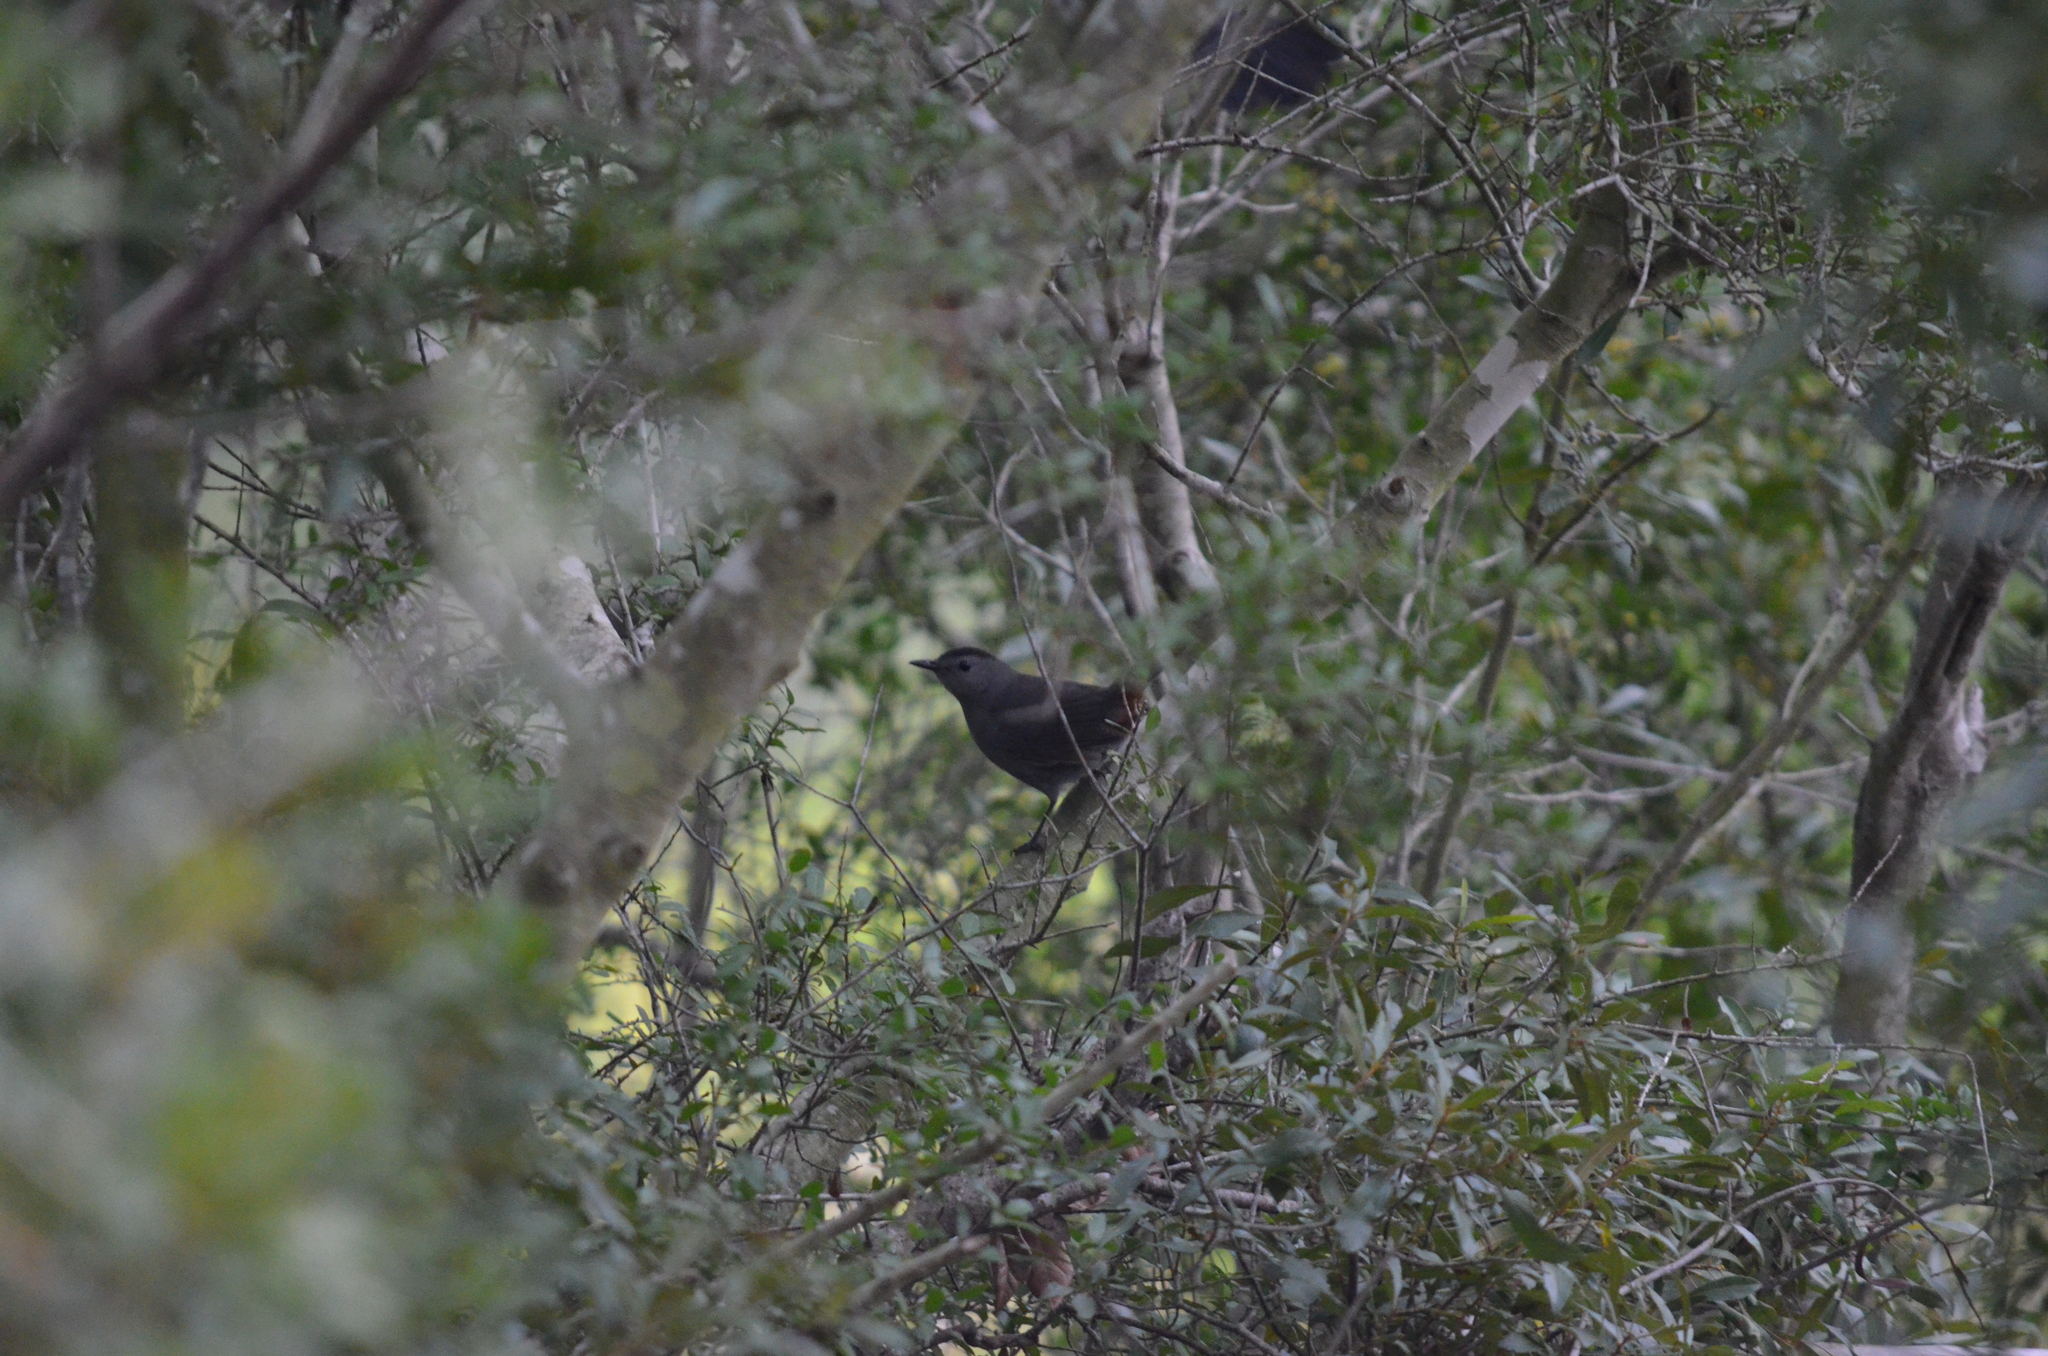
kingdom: Animalia
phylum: Chordata
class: Aves
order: Passeriformes
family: Mimidae
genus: Dumetella
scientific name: Dumetella carolinensis
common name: Gray catbird
